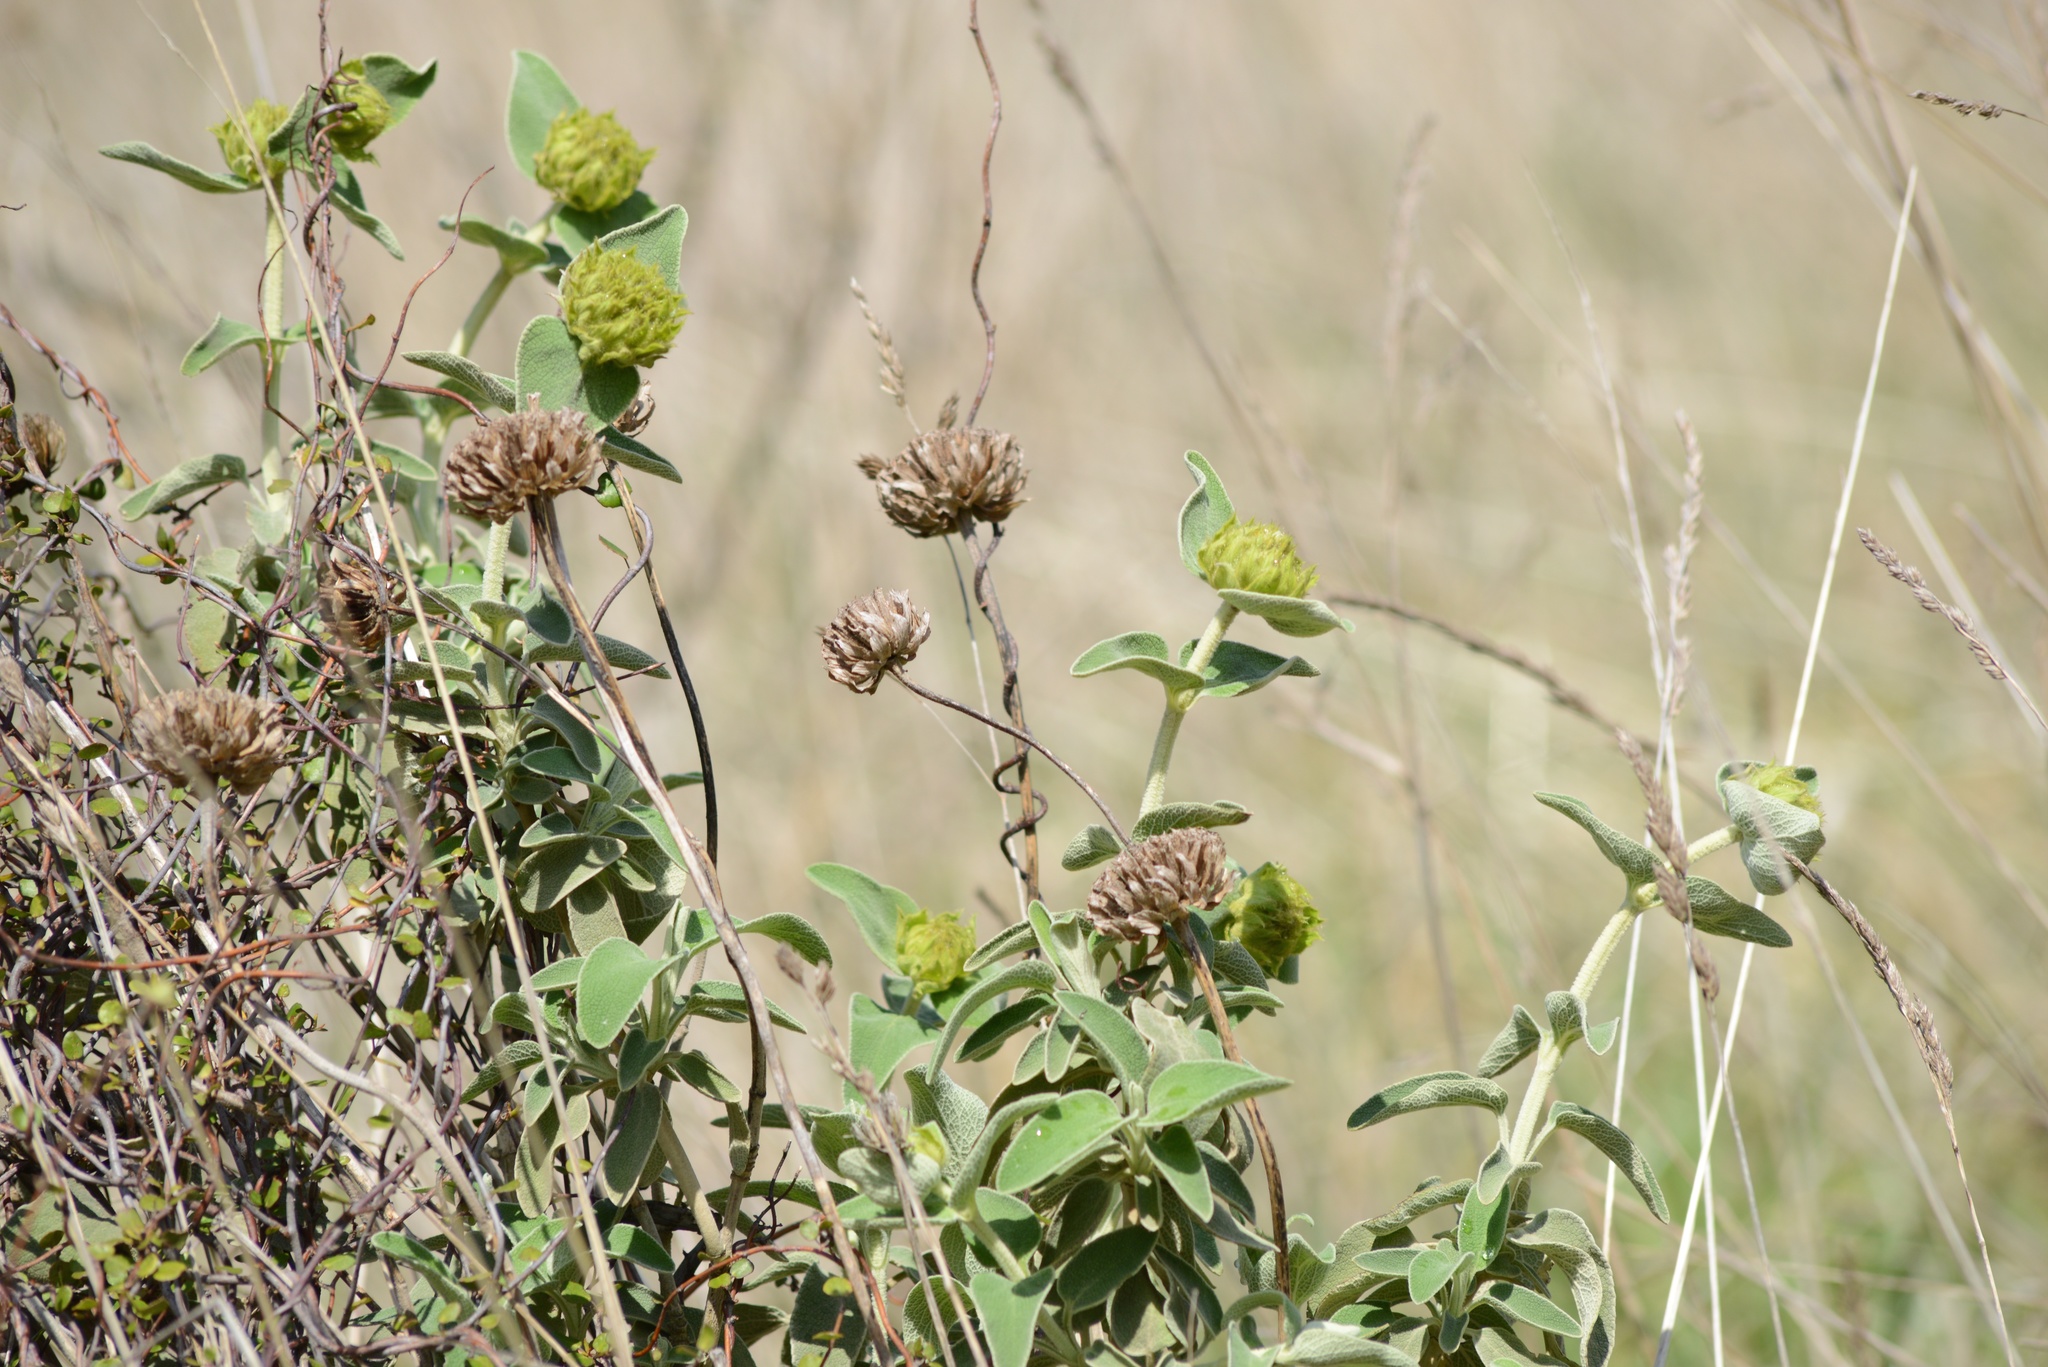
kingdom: Plantae
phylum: Tracheophyta
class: Magnoliopsida
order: Lamiales
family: Lamiaceae
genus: Phlomis
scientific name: Phlomis fruticosa
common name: Jerusalem sage
